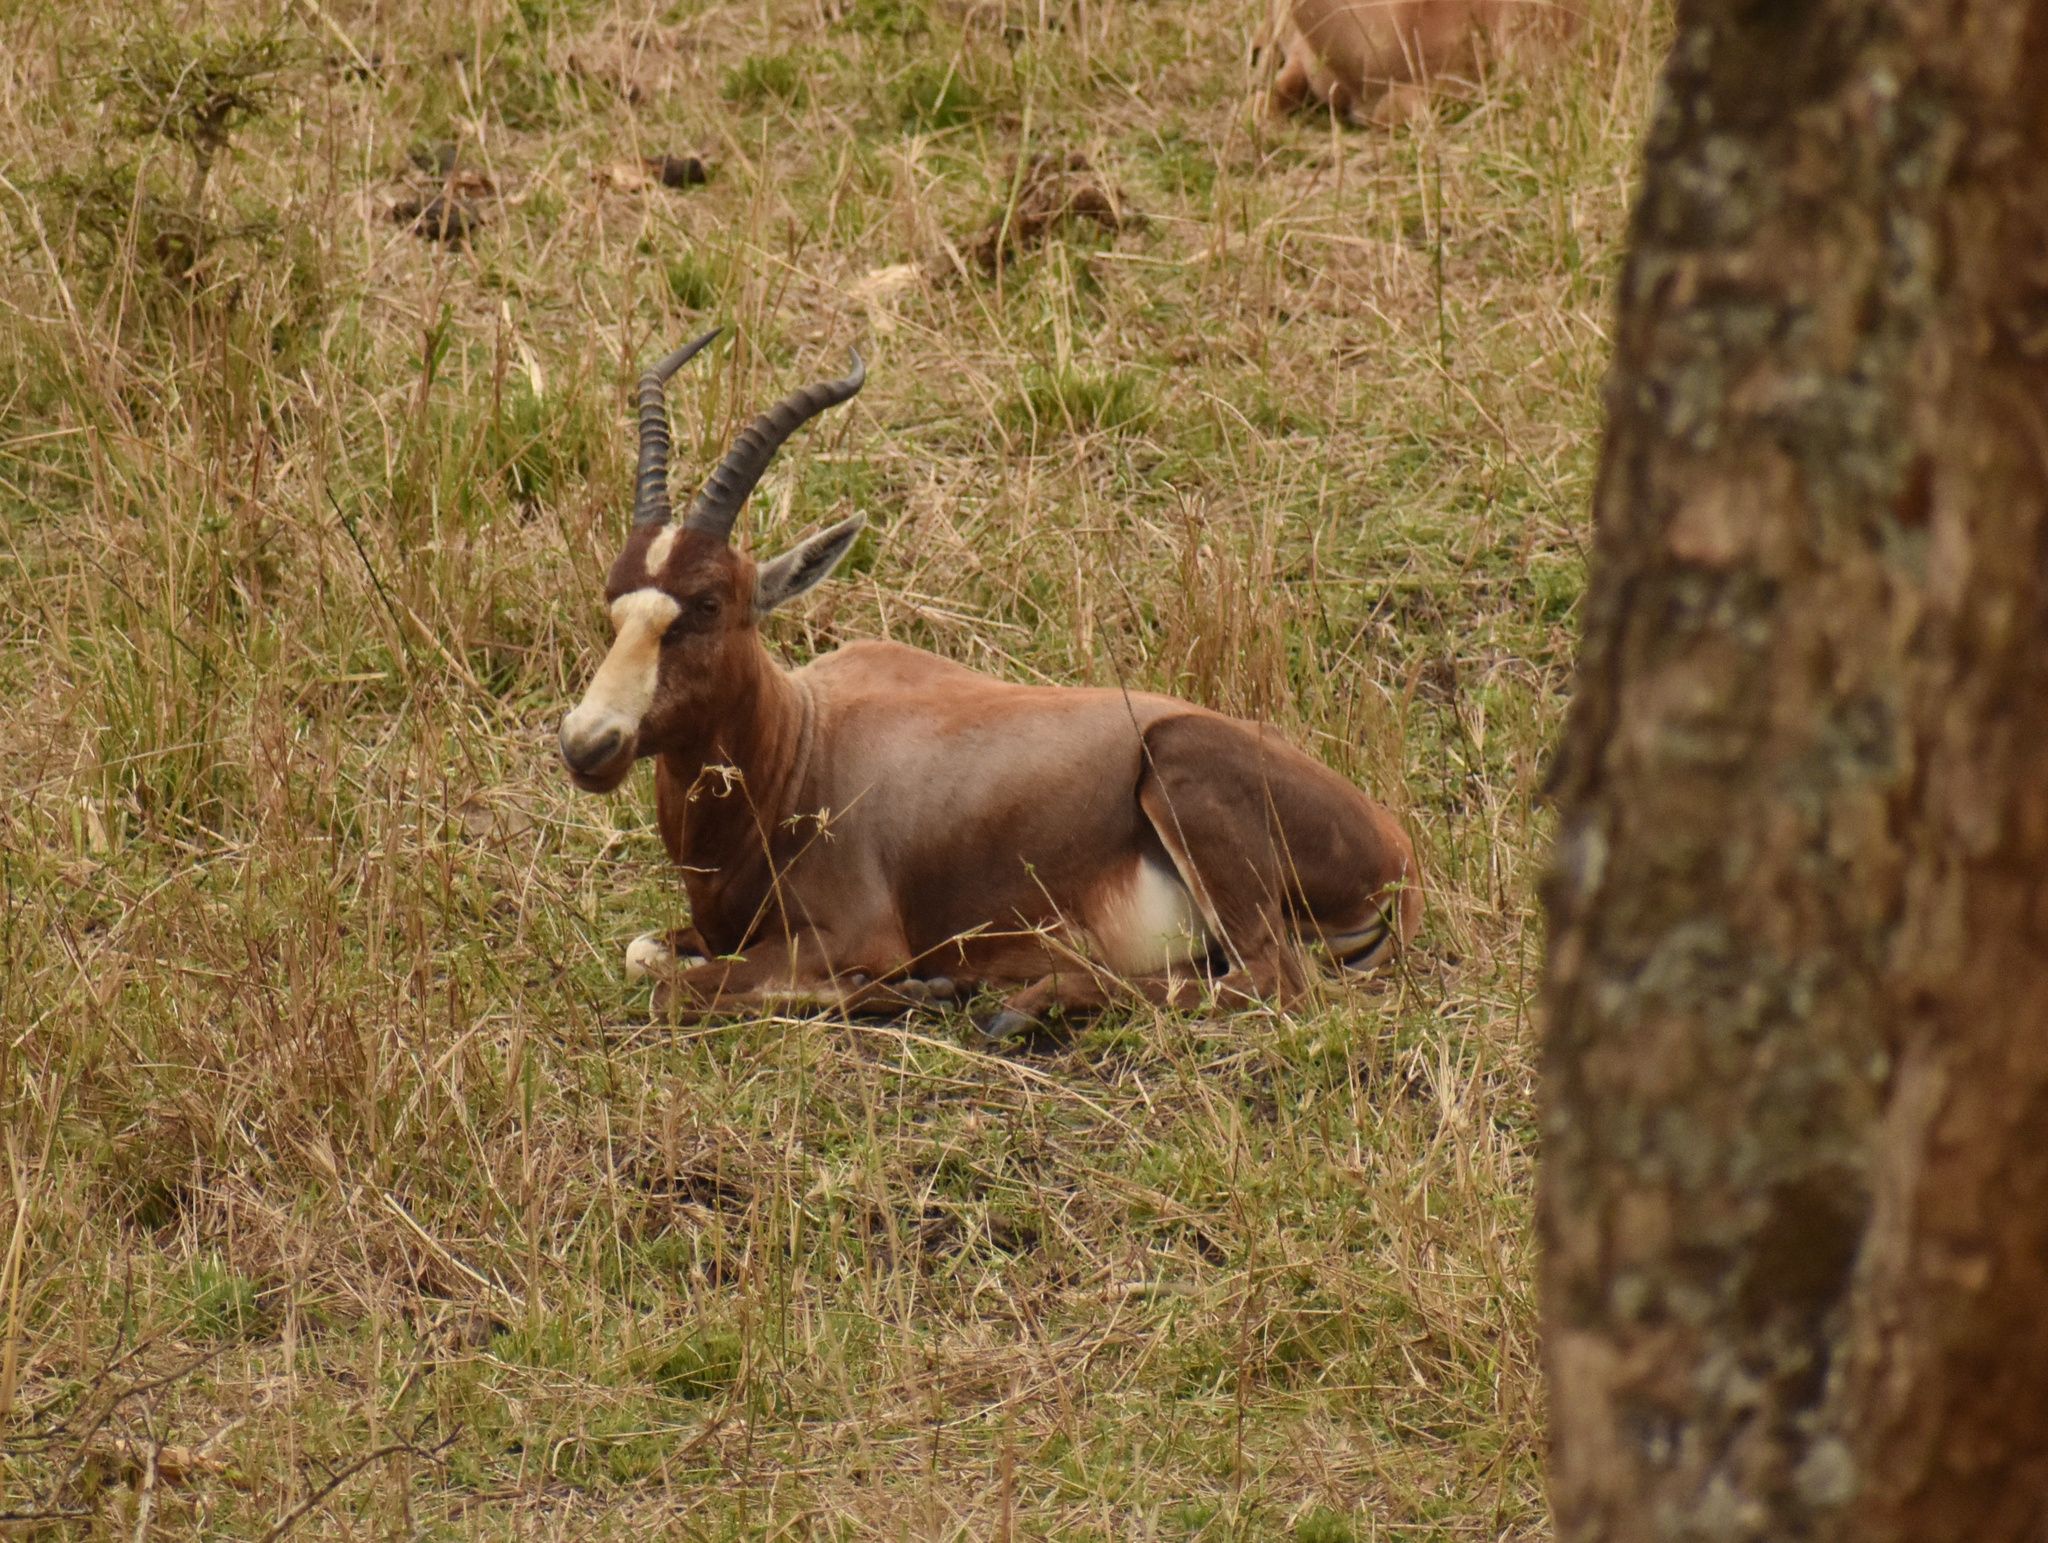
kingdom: Animalia
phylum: Chordata
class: Mammalia
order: Artiodactyla
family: Bovidae
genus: Damaliscus
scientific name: Damaliscus pygargus
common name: Bontebok
